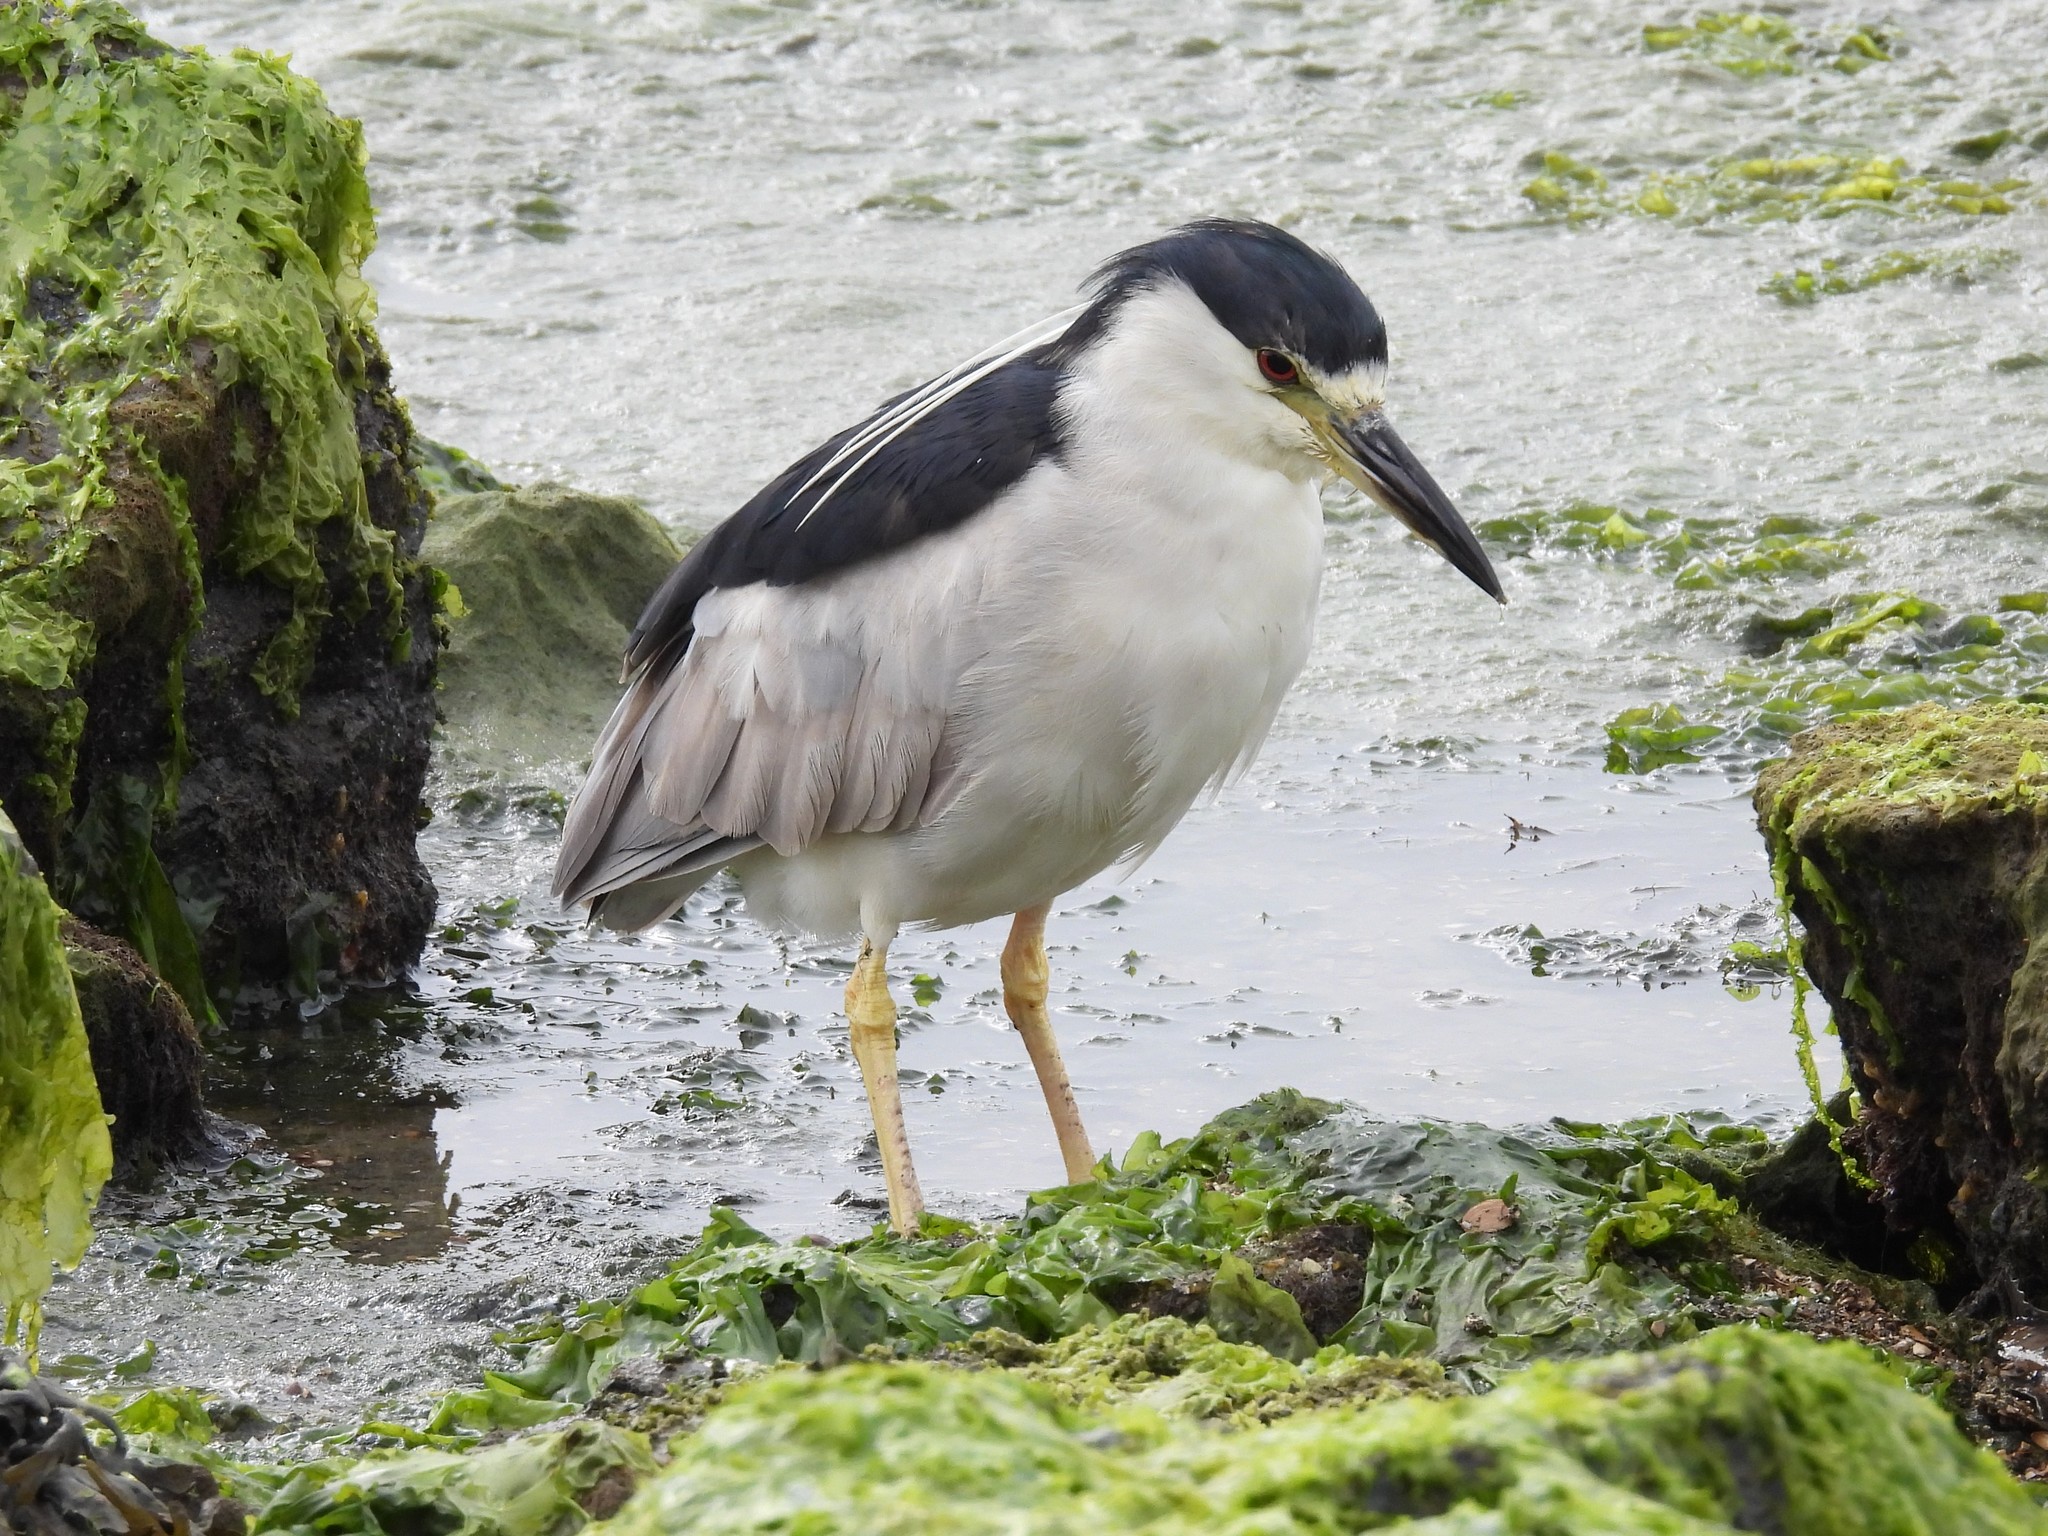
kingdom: Animalia
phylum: Chordata
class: Aves
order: Pelecaniformes
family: Ardeidae
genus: Nycticorax
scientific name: Nycticorax nycticorax
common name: Black-crowned night heron
